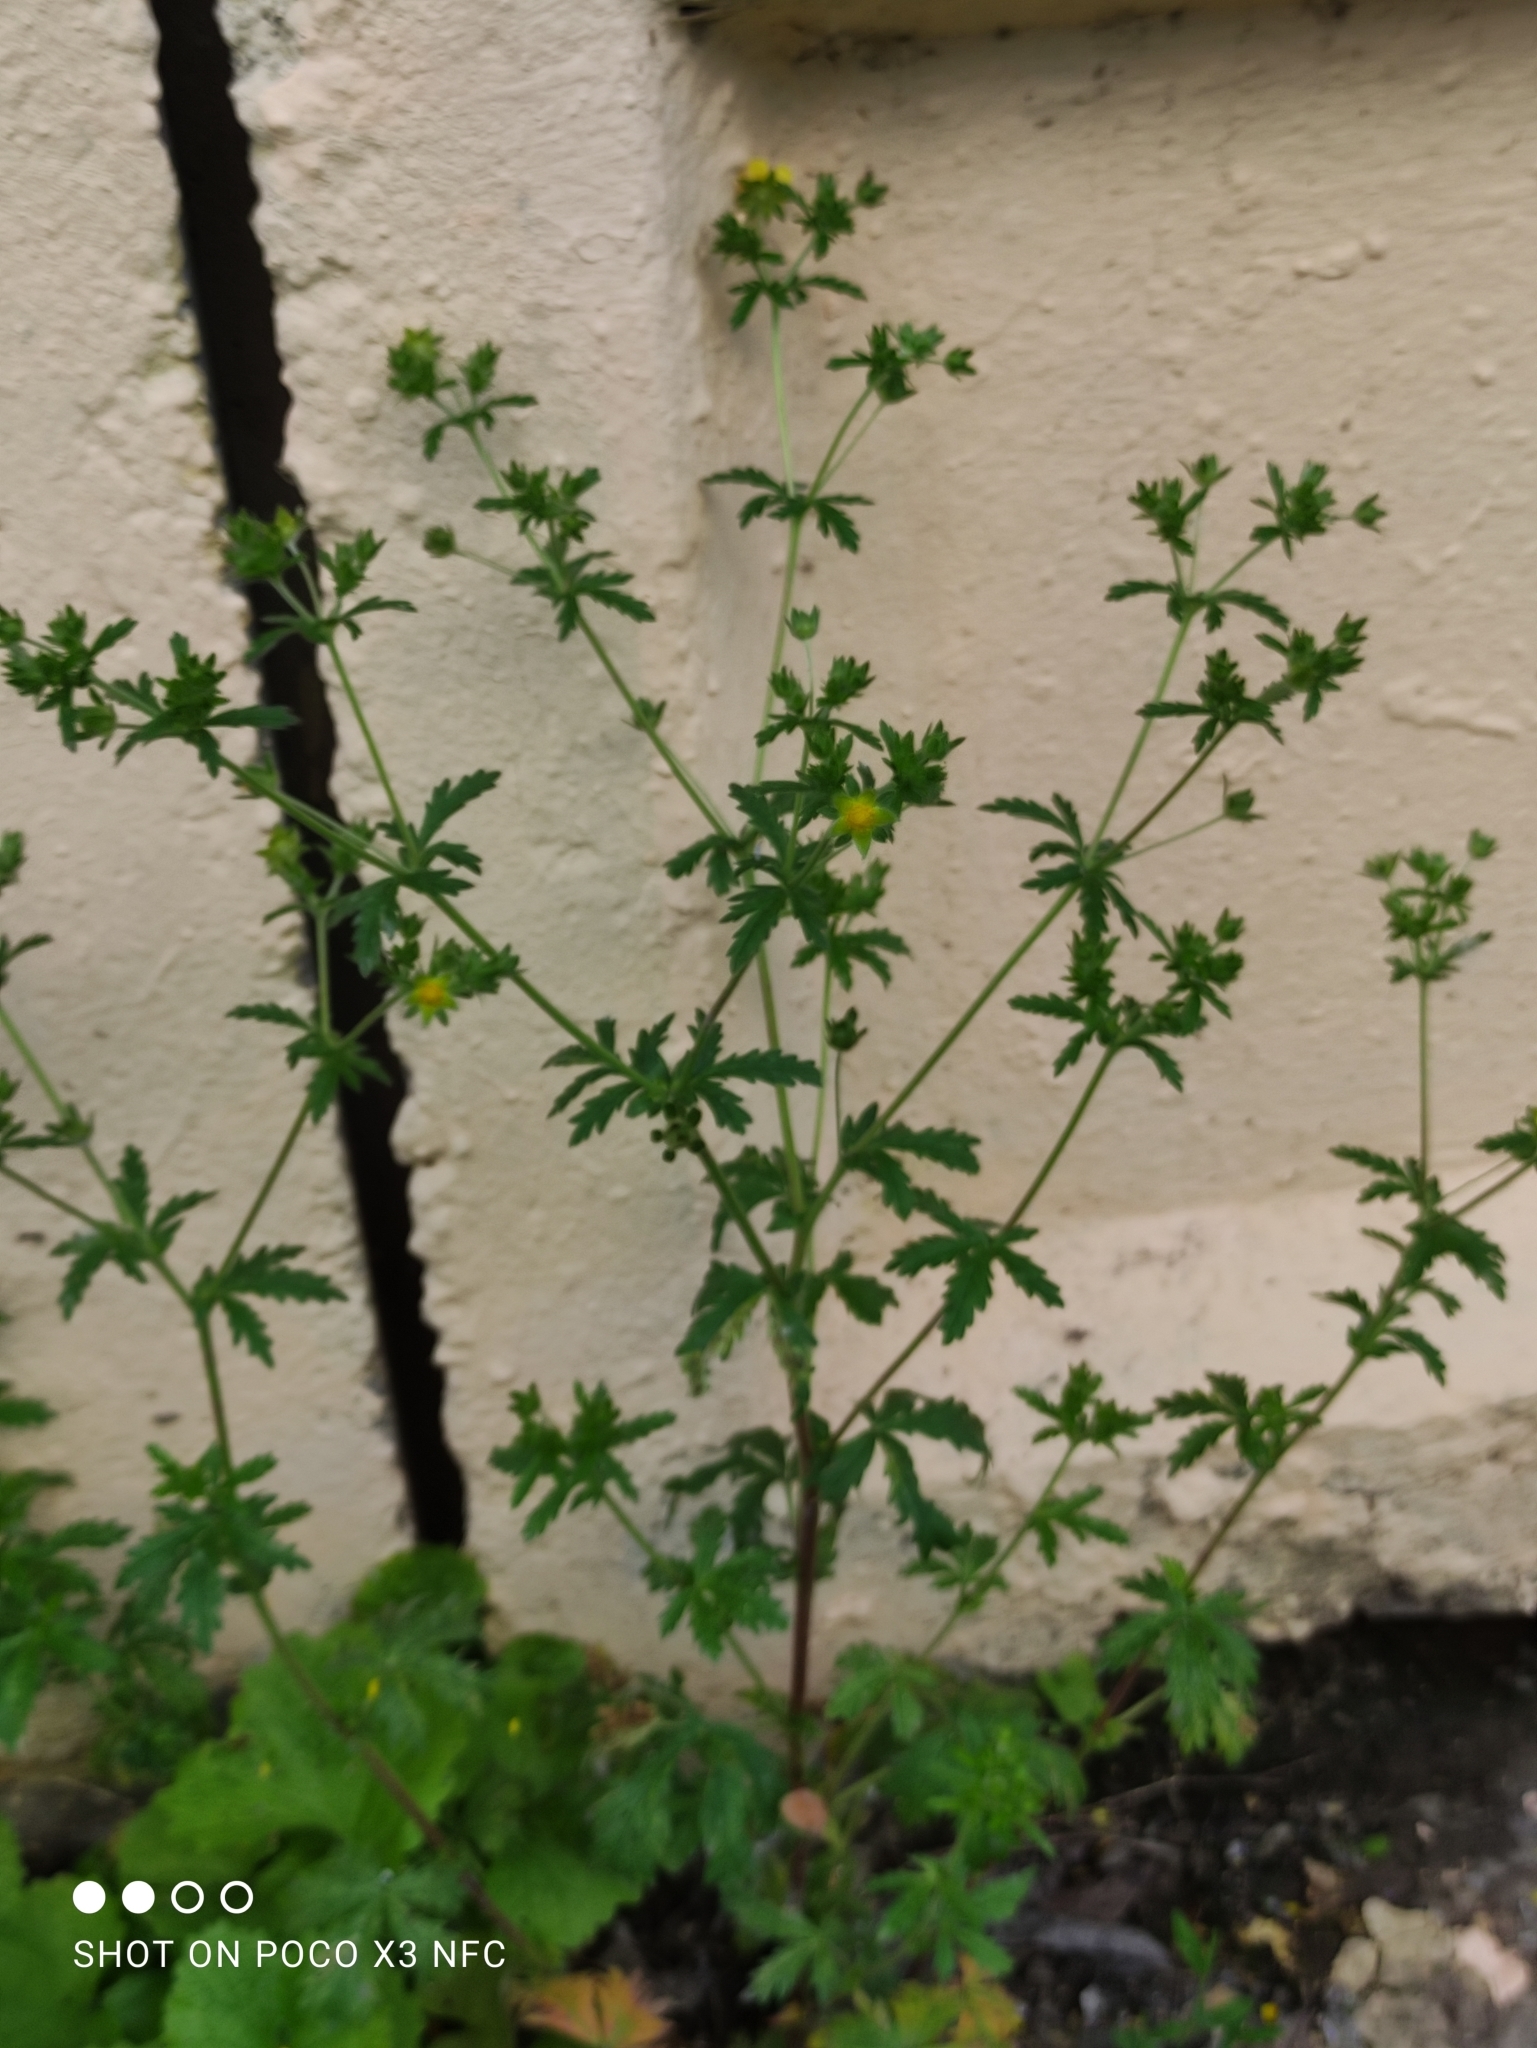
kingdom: Plantae
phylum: Tracheophyta
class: Magnoliopsida
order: Rosales
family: Rosaceae
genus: Potentilla
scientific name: Potentilla intermedia
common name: Downy cinquefoil
